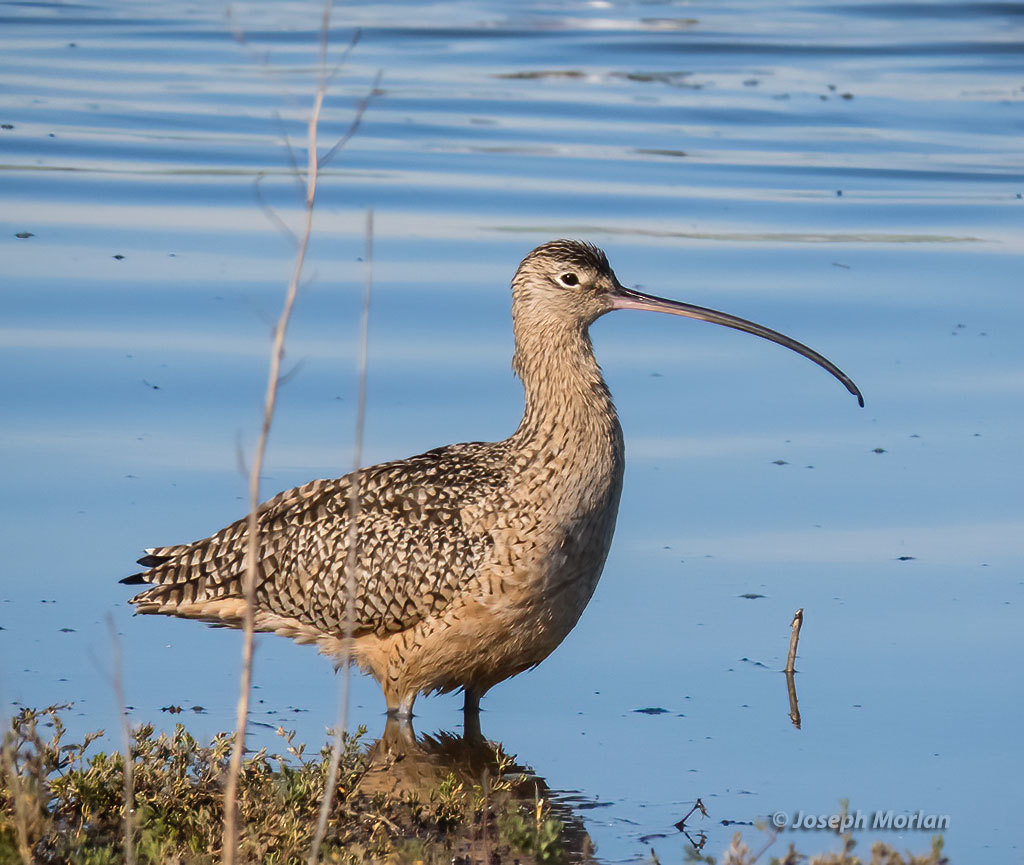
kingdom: Animalia
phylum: Chordata
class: Aves
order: Charadriiformes
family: Scolopacidae
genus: Numenius
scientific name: Numenius americanus
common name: Long-billed curlew
